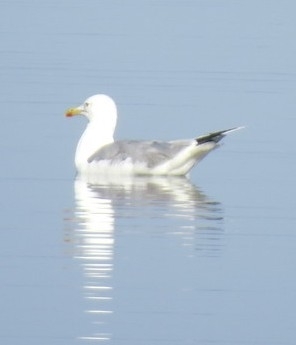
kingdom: Animalia
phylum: Chordata
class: Aves
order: Charadriiformes
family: Laridae
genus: Larus
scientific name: Larus cachinnans
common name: Caspian gull
